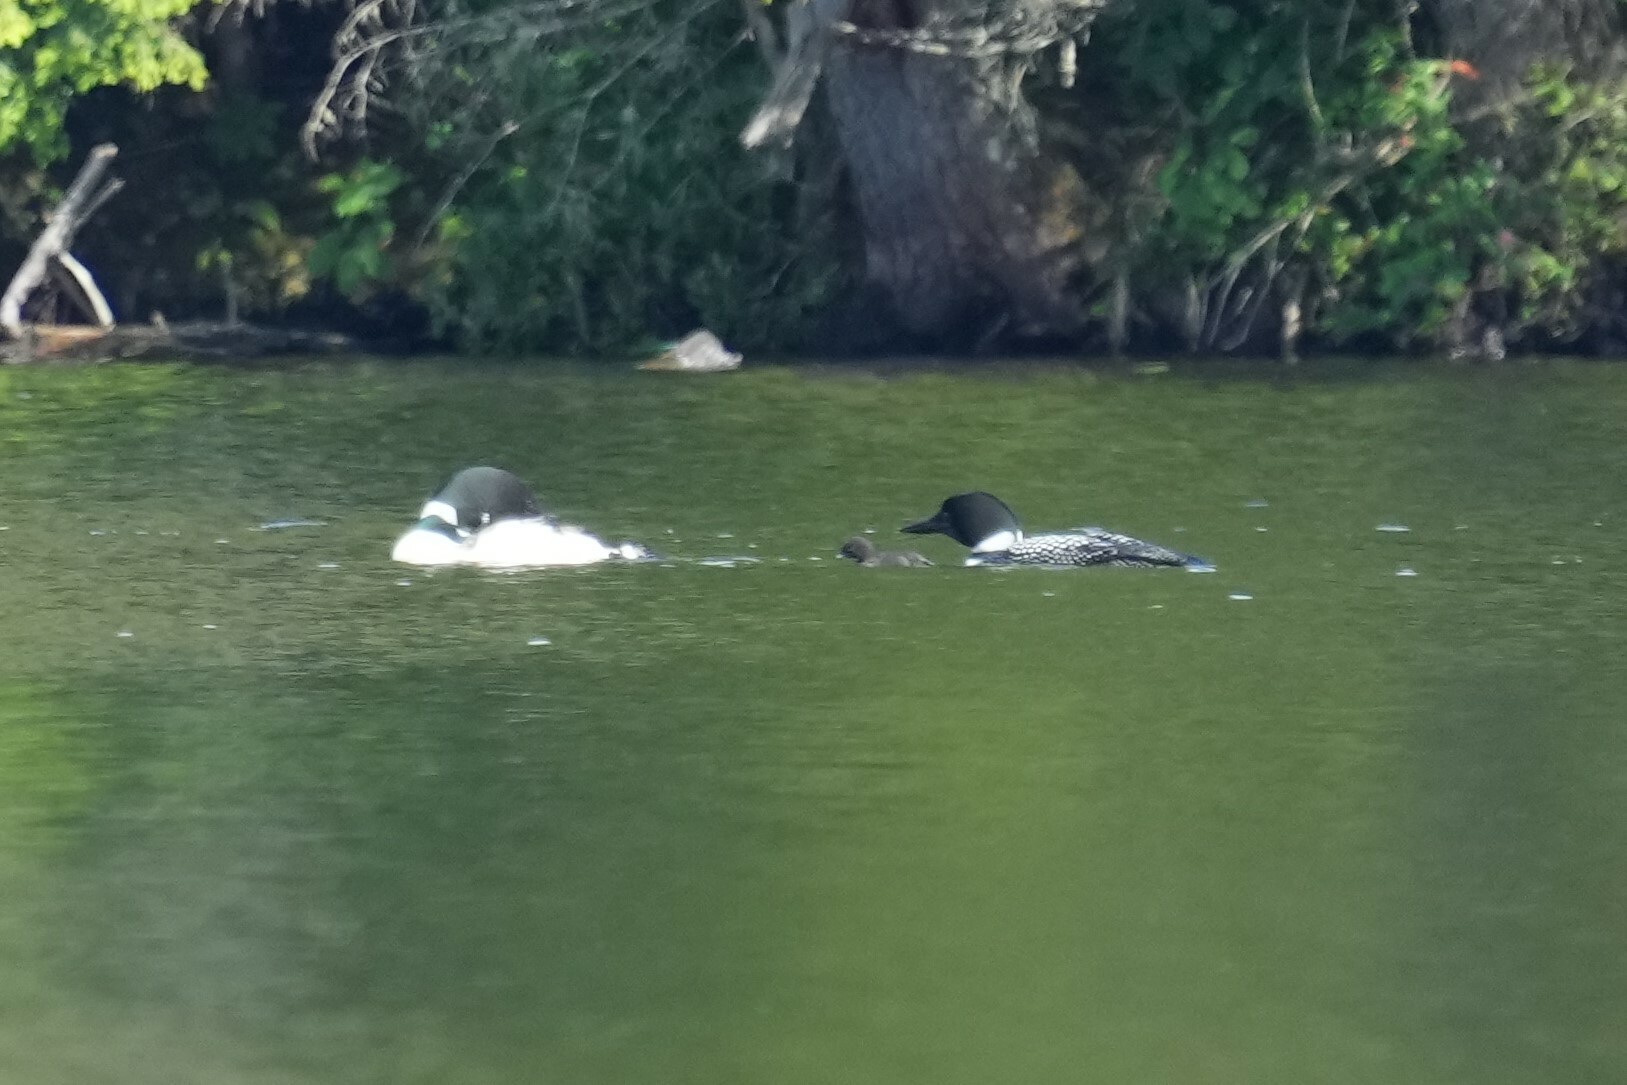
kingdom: Animalia
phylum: Chordata
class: Aves
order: Gaviiformes
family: Gaviidae
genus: Gavia
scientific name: Gavia immer
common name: Common loon
